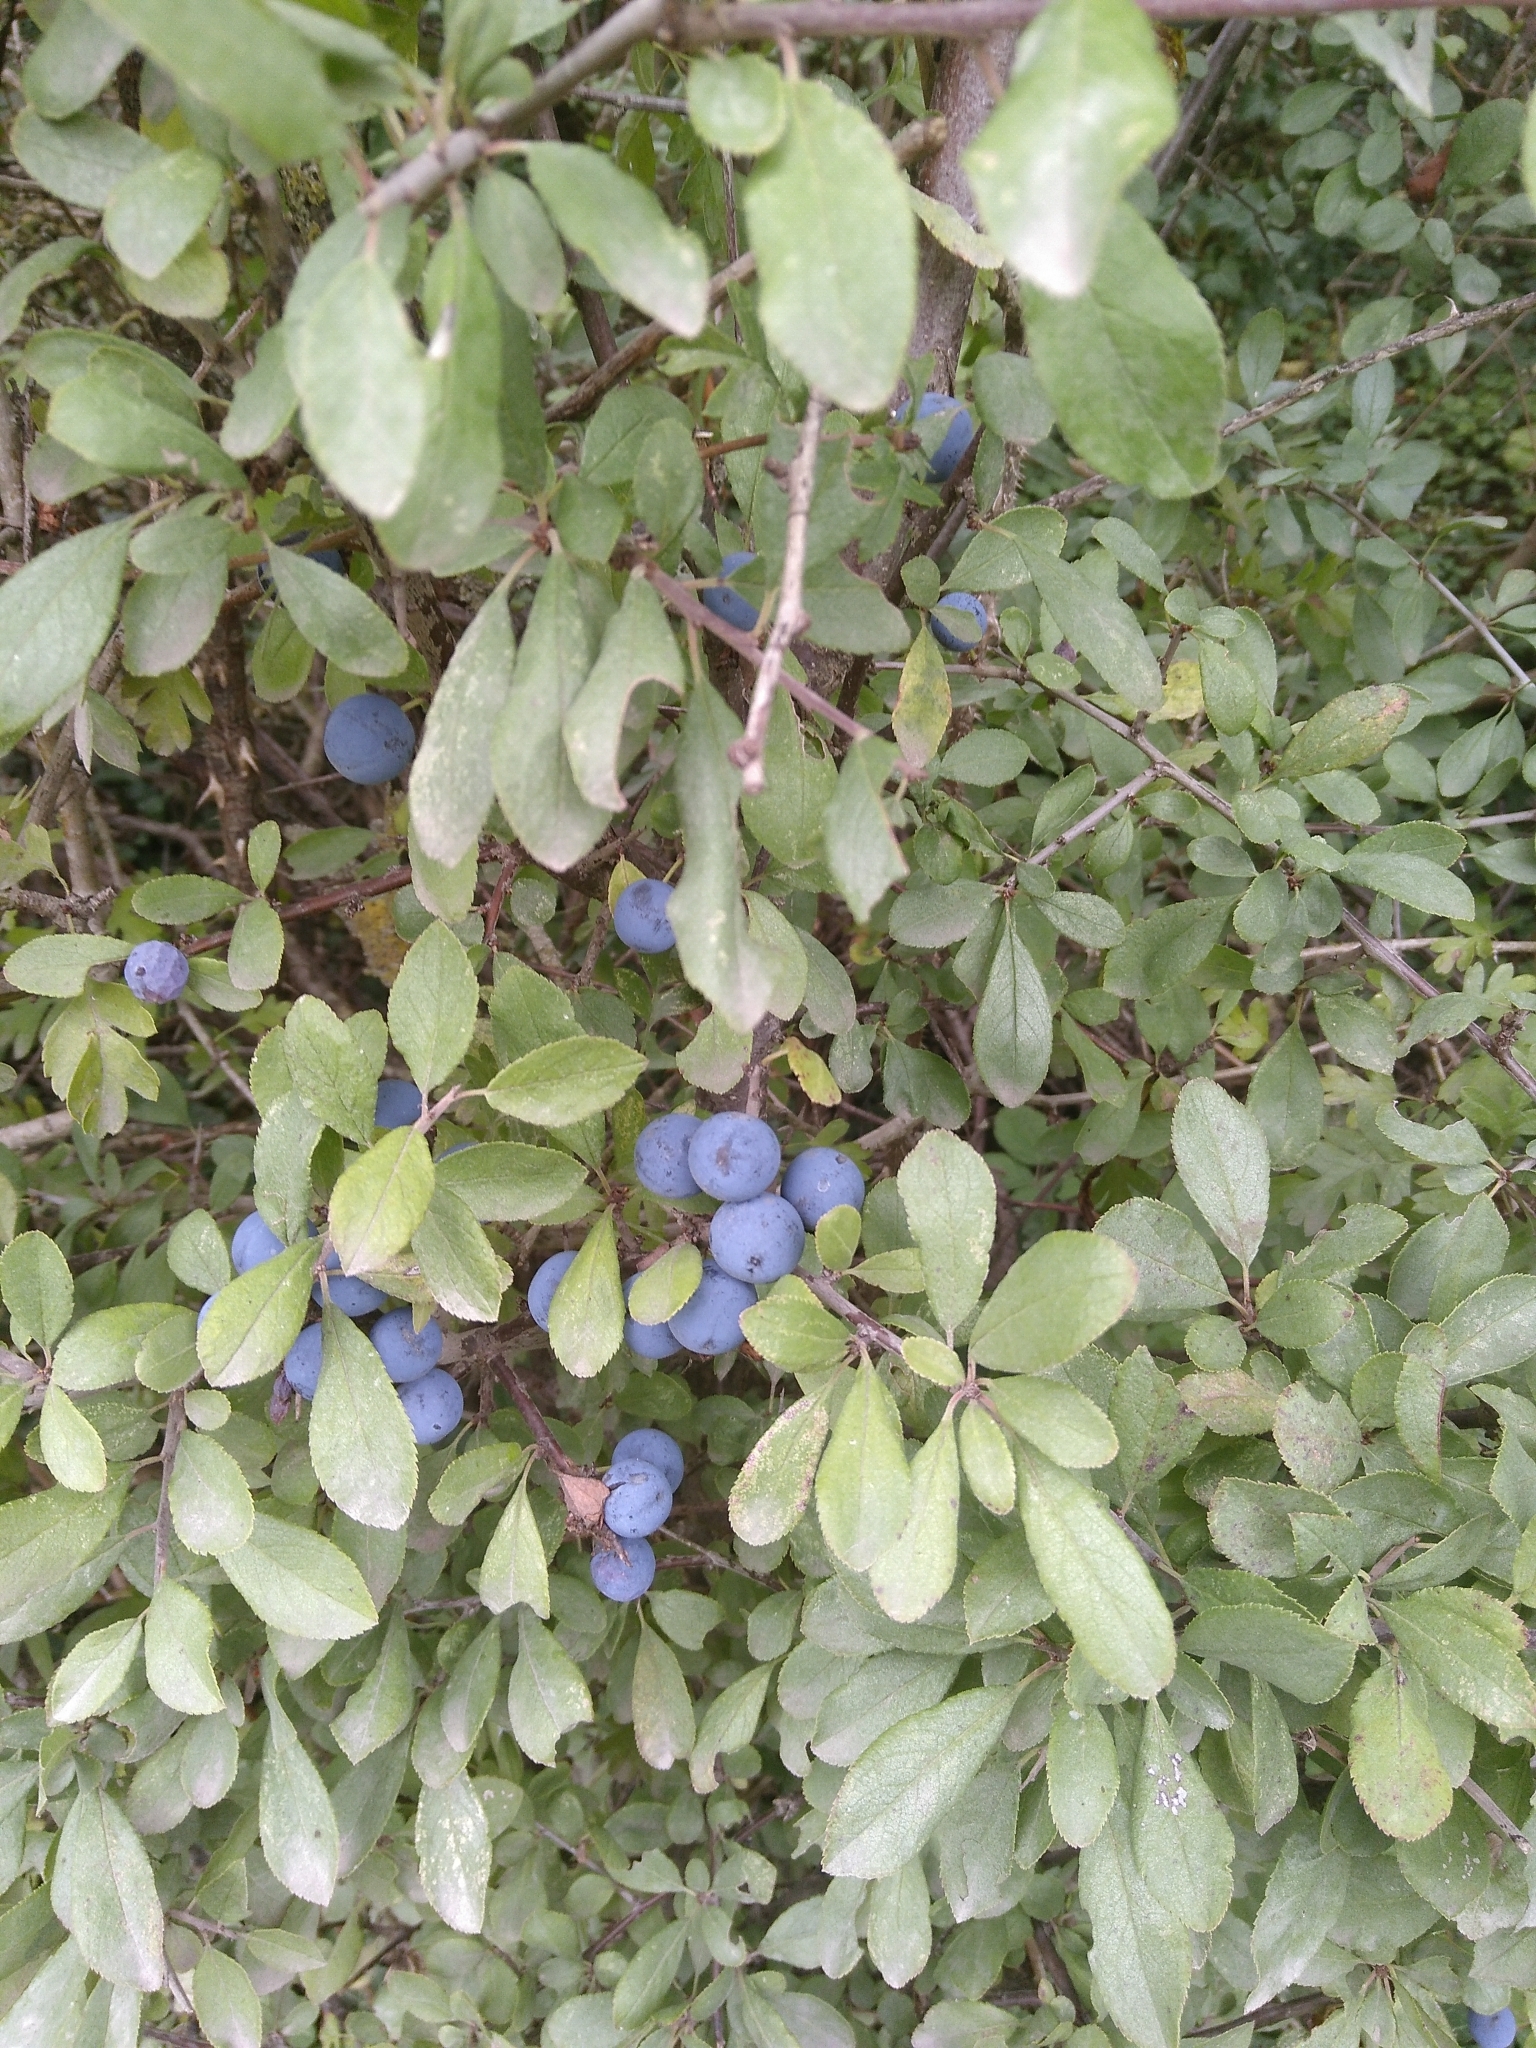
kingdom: Plantae
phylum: Tracheophyta
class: Magnoliopsida
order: Rosales
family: Rosaceae
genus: Prunus
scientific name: Prunus spinosa
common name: Blackthorn
